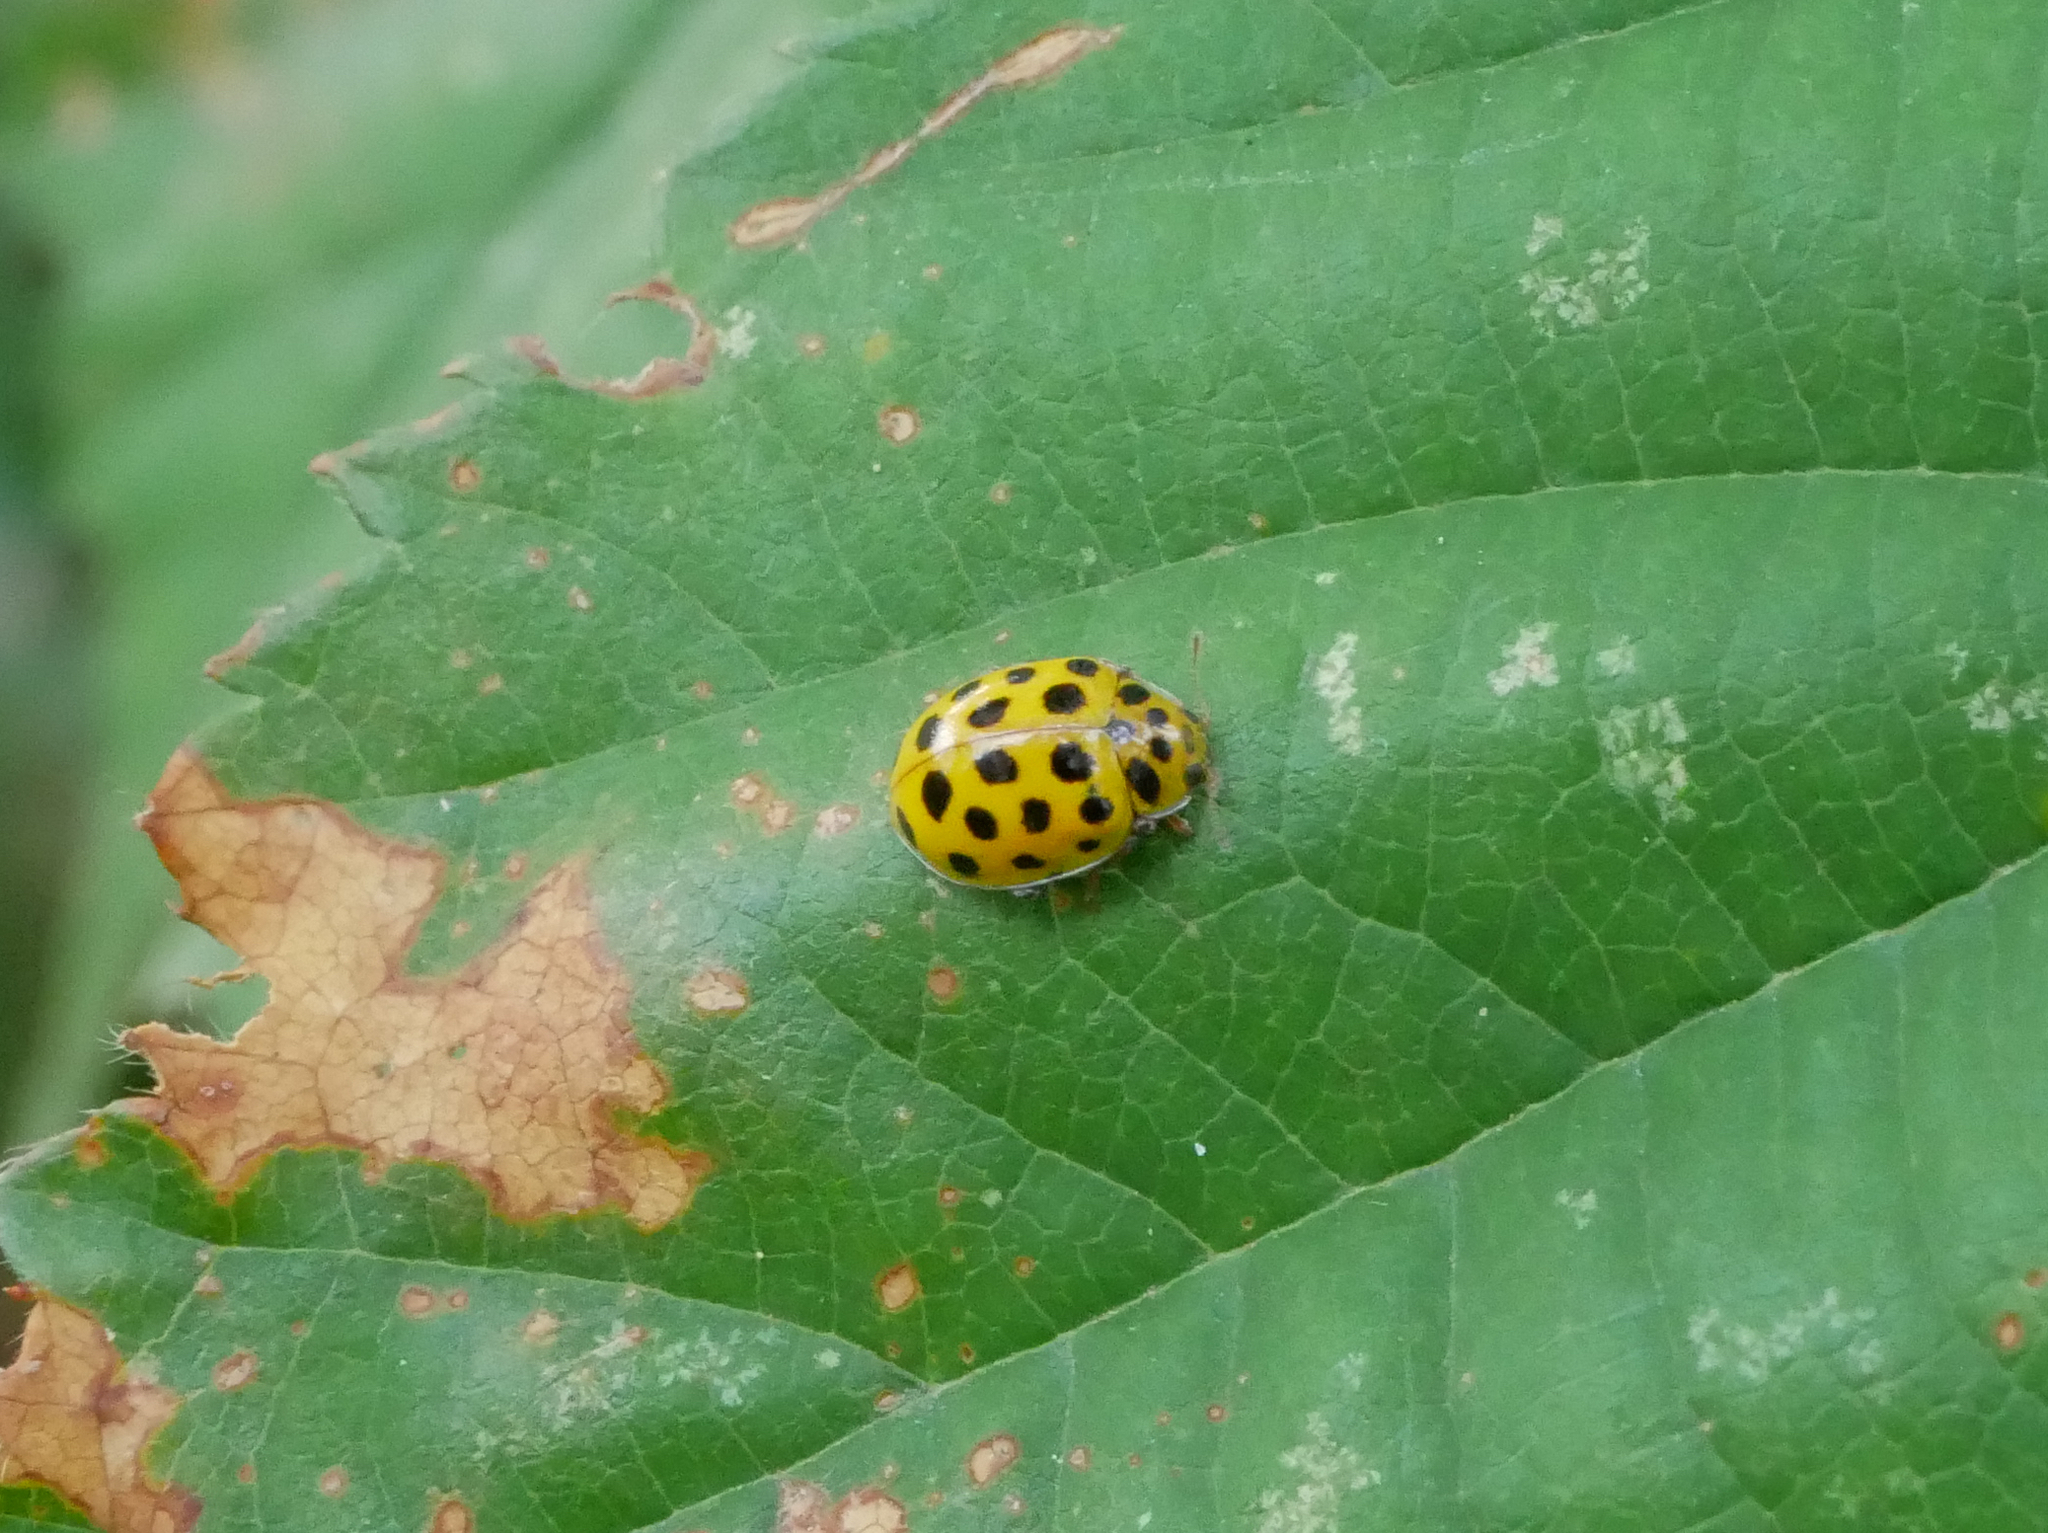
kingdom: Animalia
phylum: Arthropoda
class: Insecta
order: Coleoptera
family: Coccinellidae
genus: Psyllobora
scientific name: Psyllobora vigintiduopunctata
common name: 22-spot ladybird
